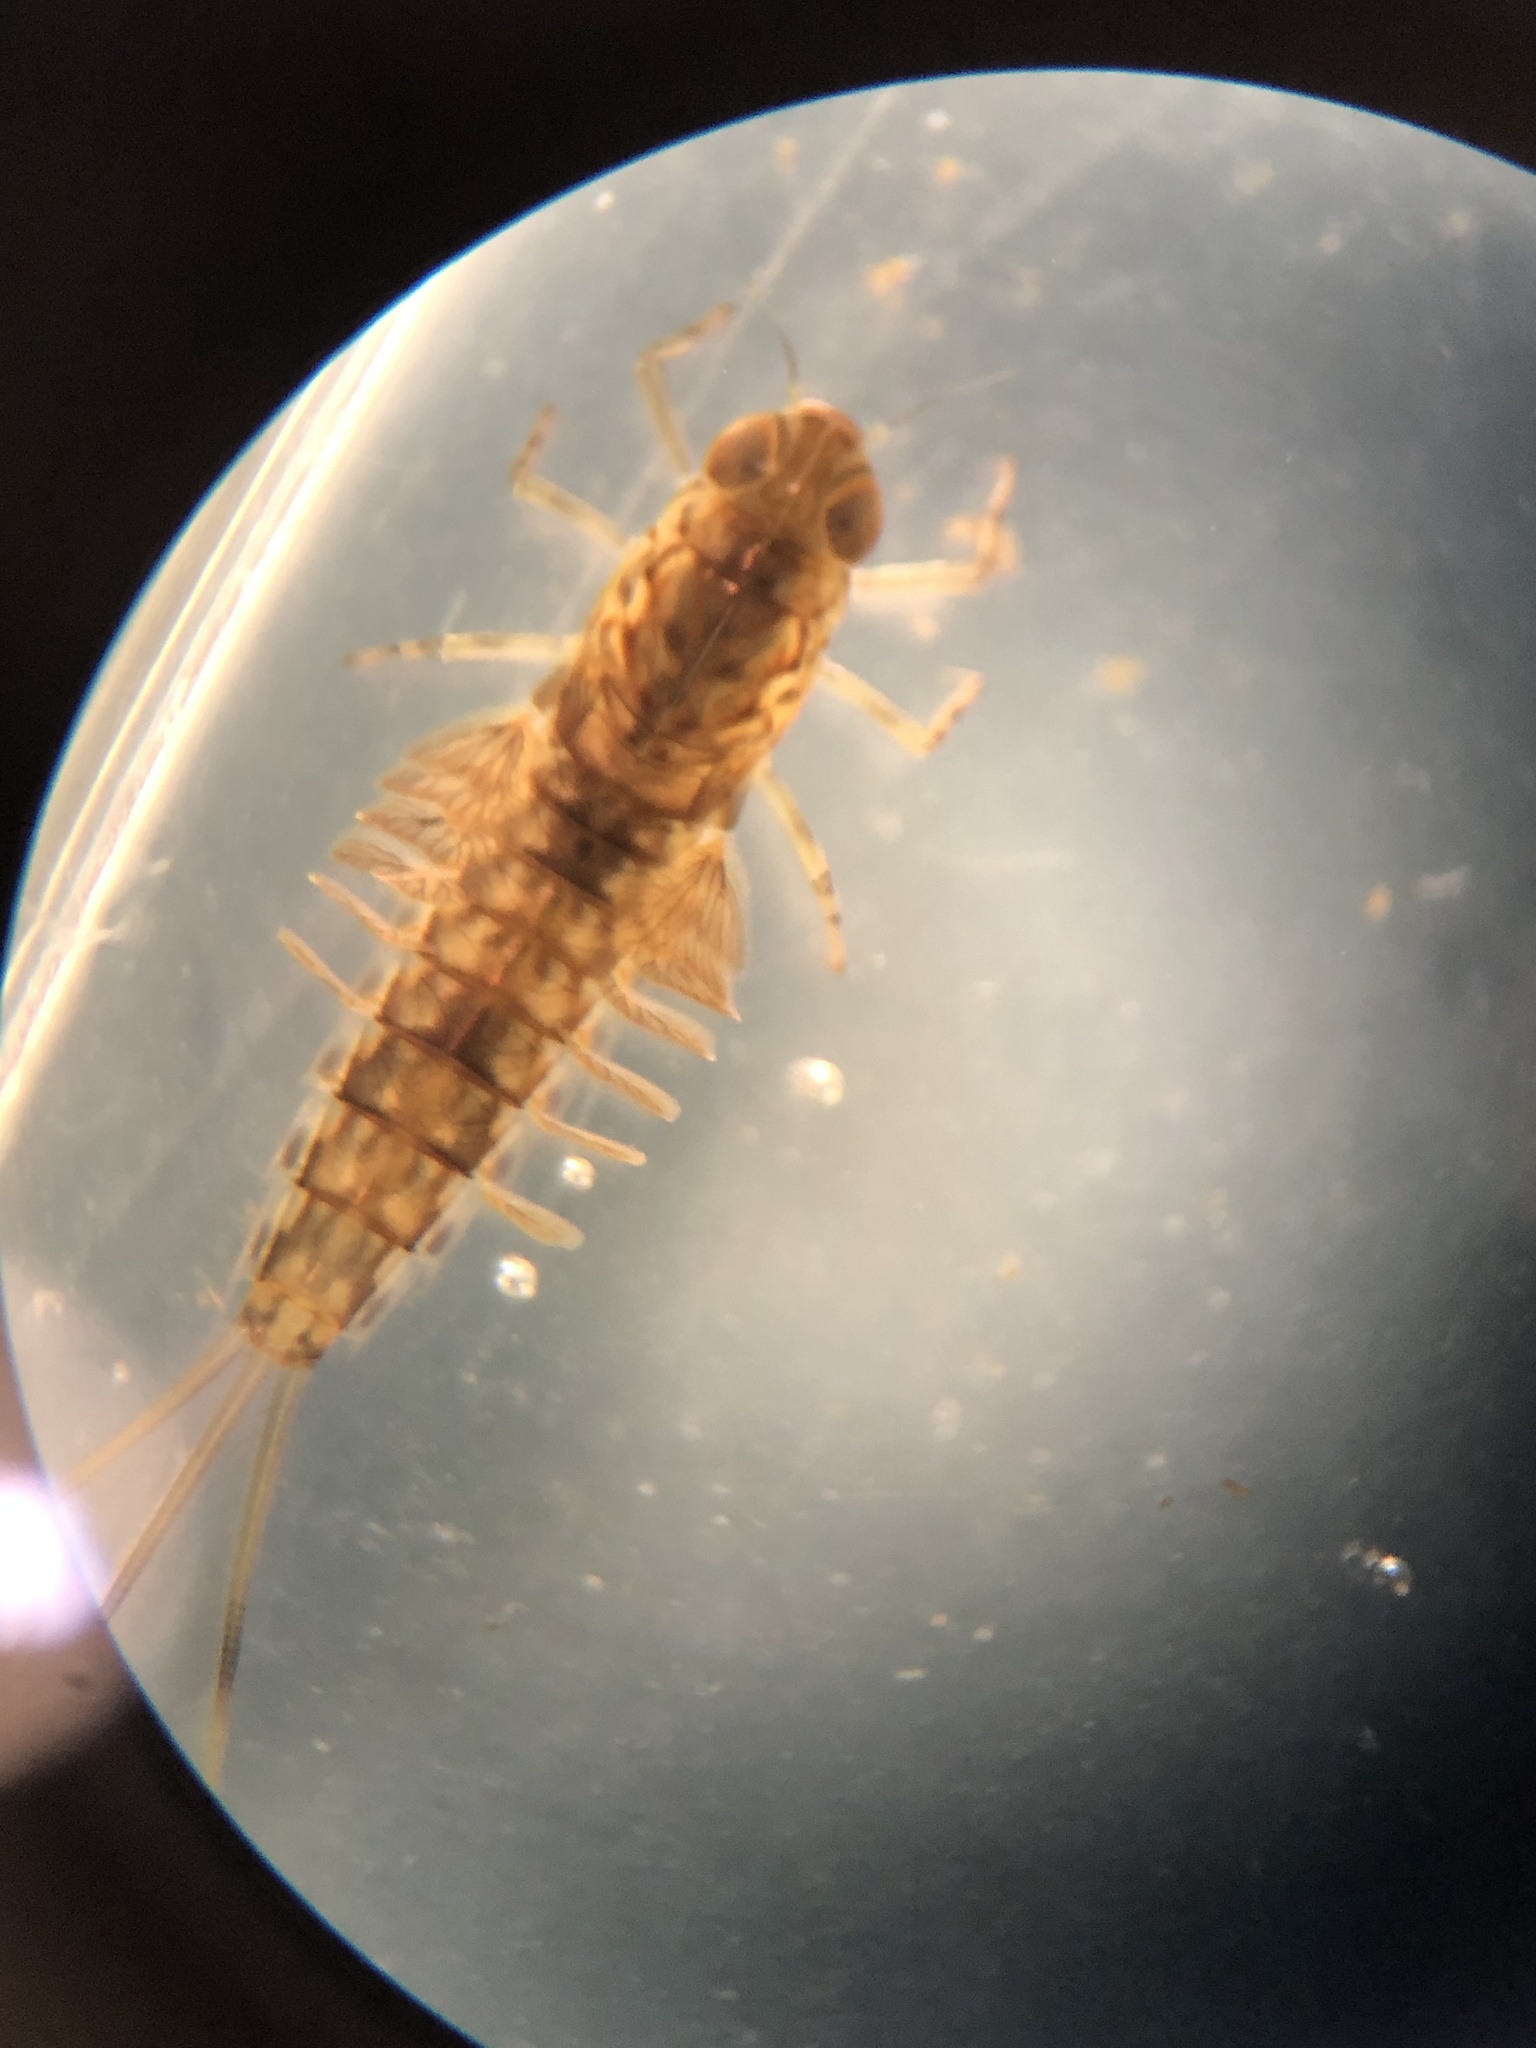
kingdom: Animalia
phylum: Arthropoda
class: Insecta
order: Ephemeroptera
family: Siphlonuridae
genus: Siphlonurus
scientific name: Siphlonurus lacustris
